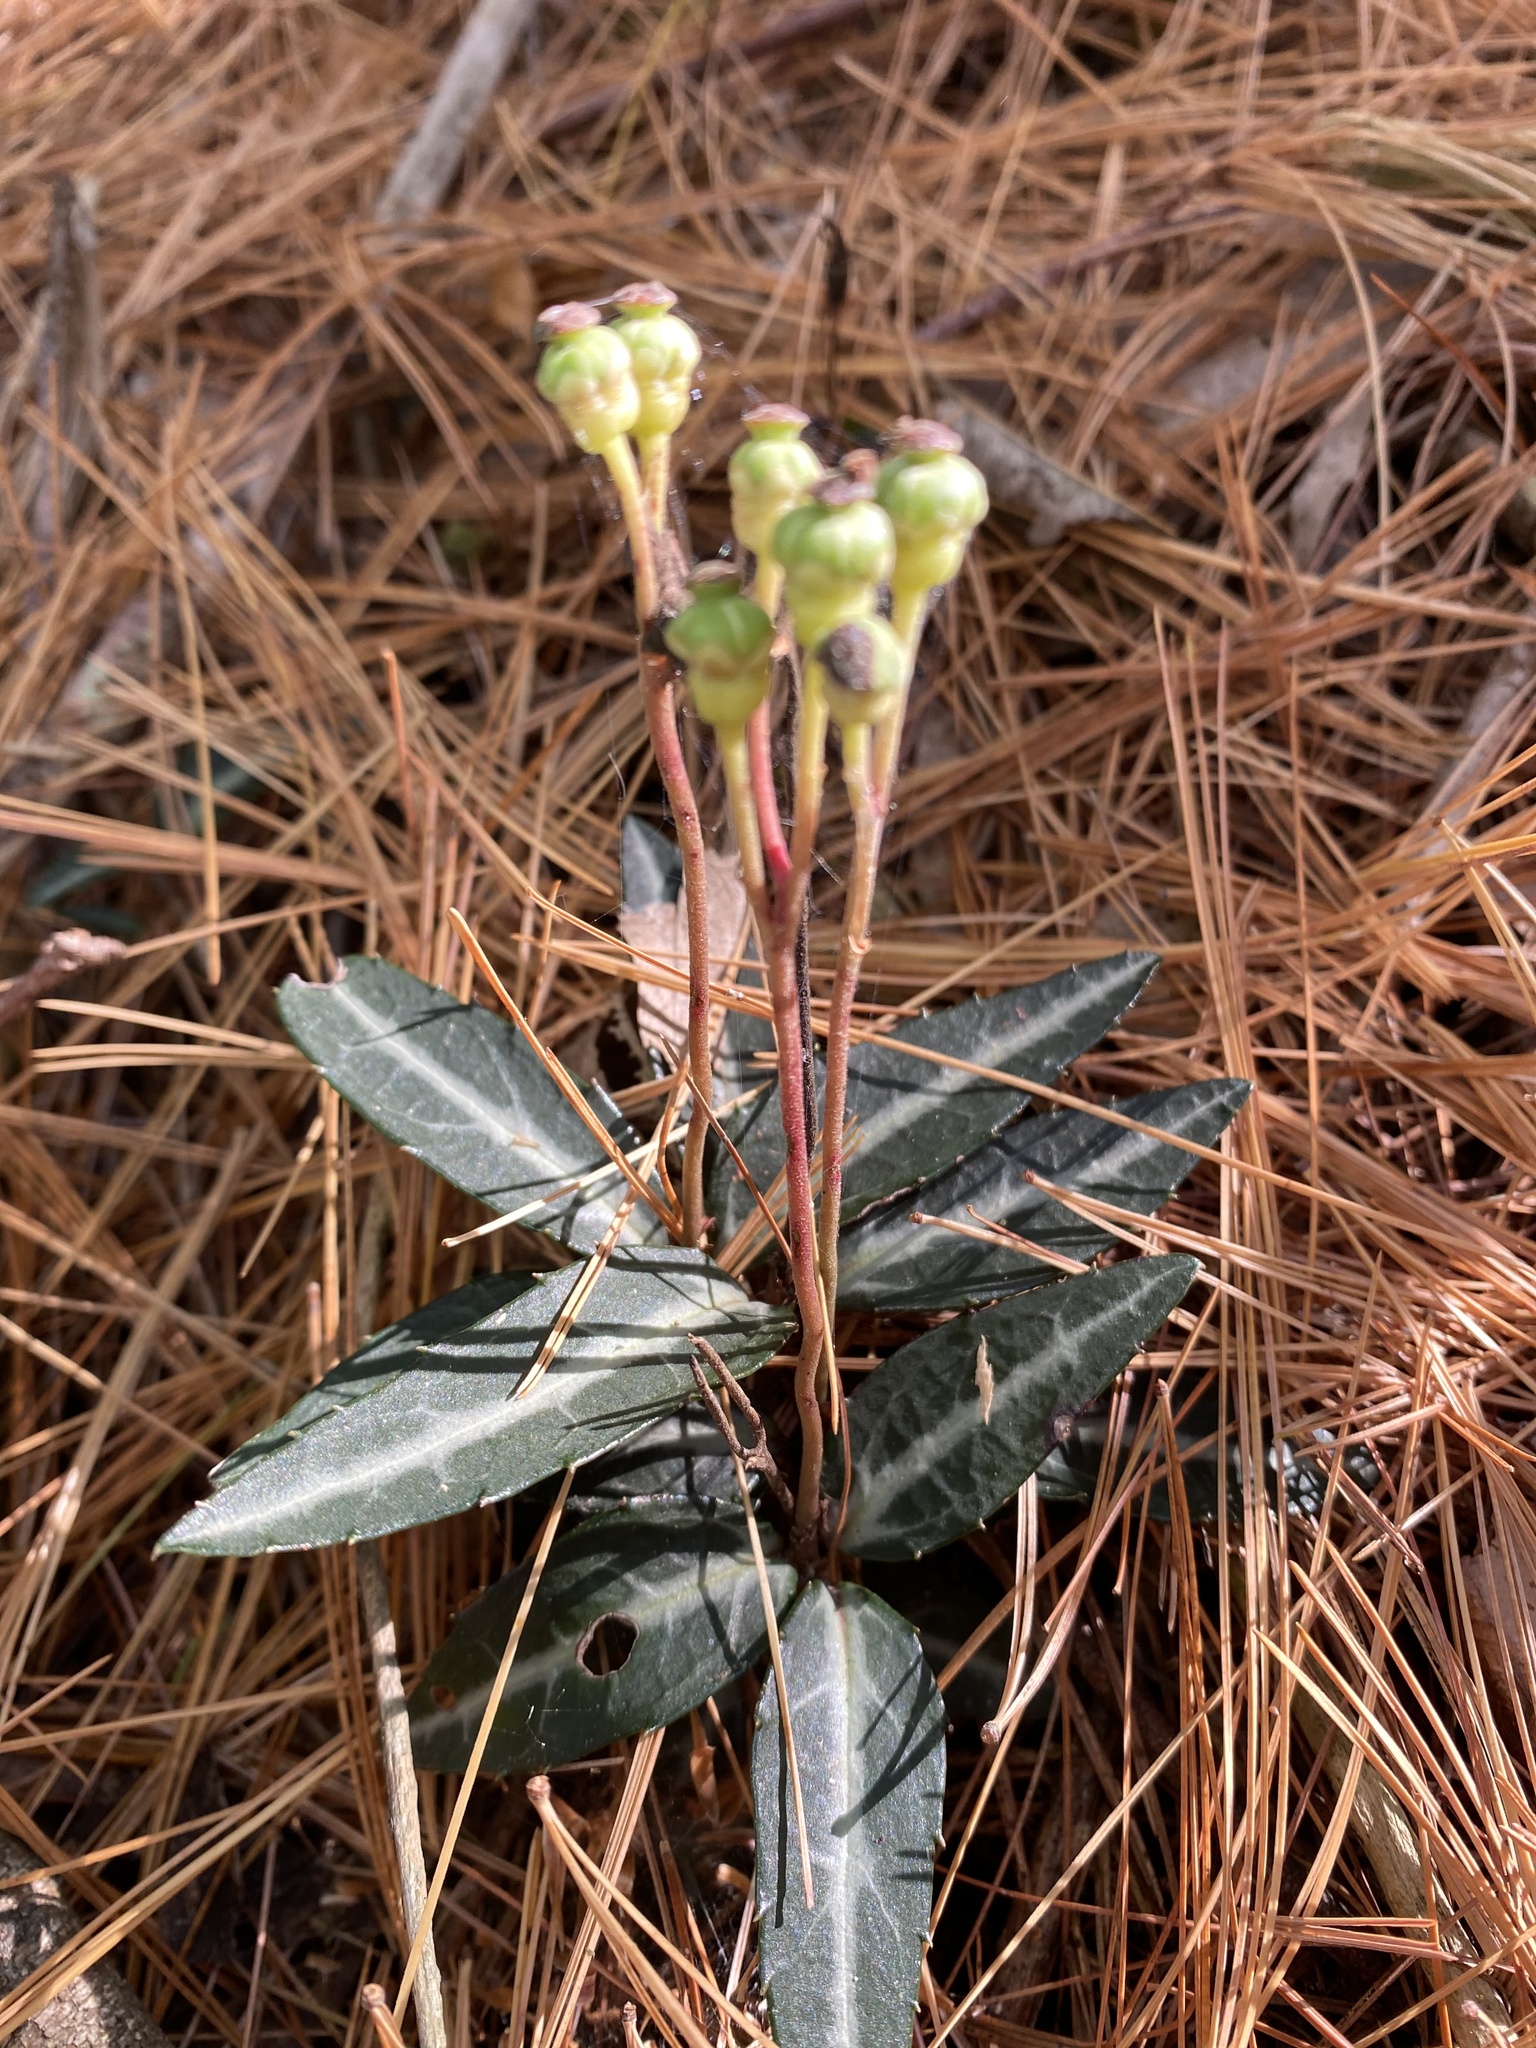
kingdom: Plantae
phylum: Tracheophyta
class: Magnoliopsida
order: Ericales
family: Ericaceae
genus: Chimaphila
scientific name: Chimaphila maculata
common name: Spotted pipsissewa
